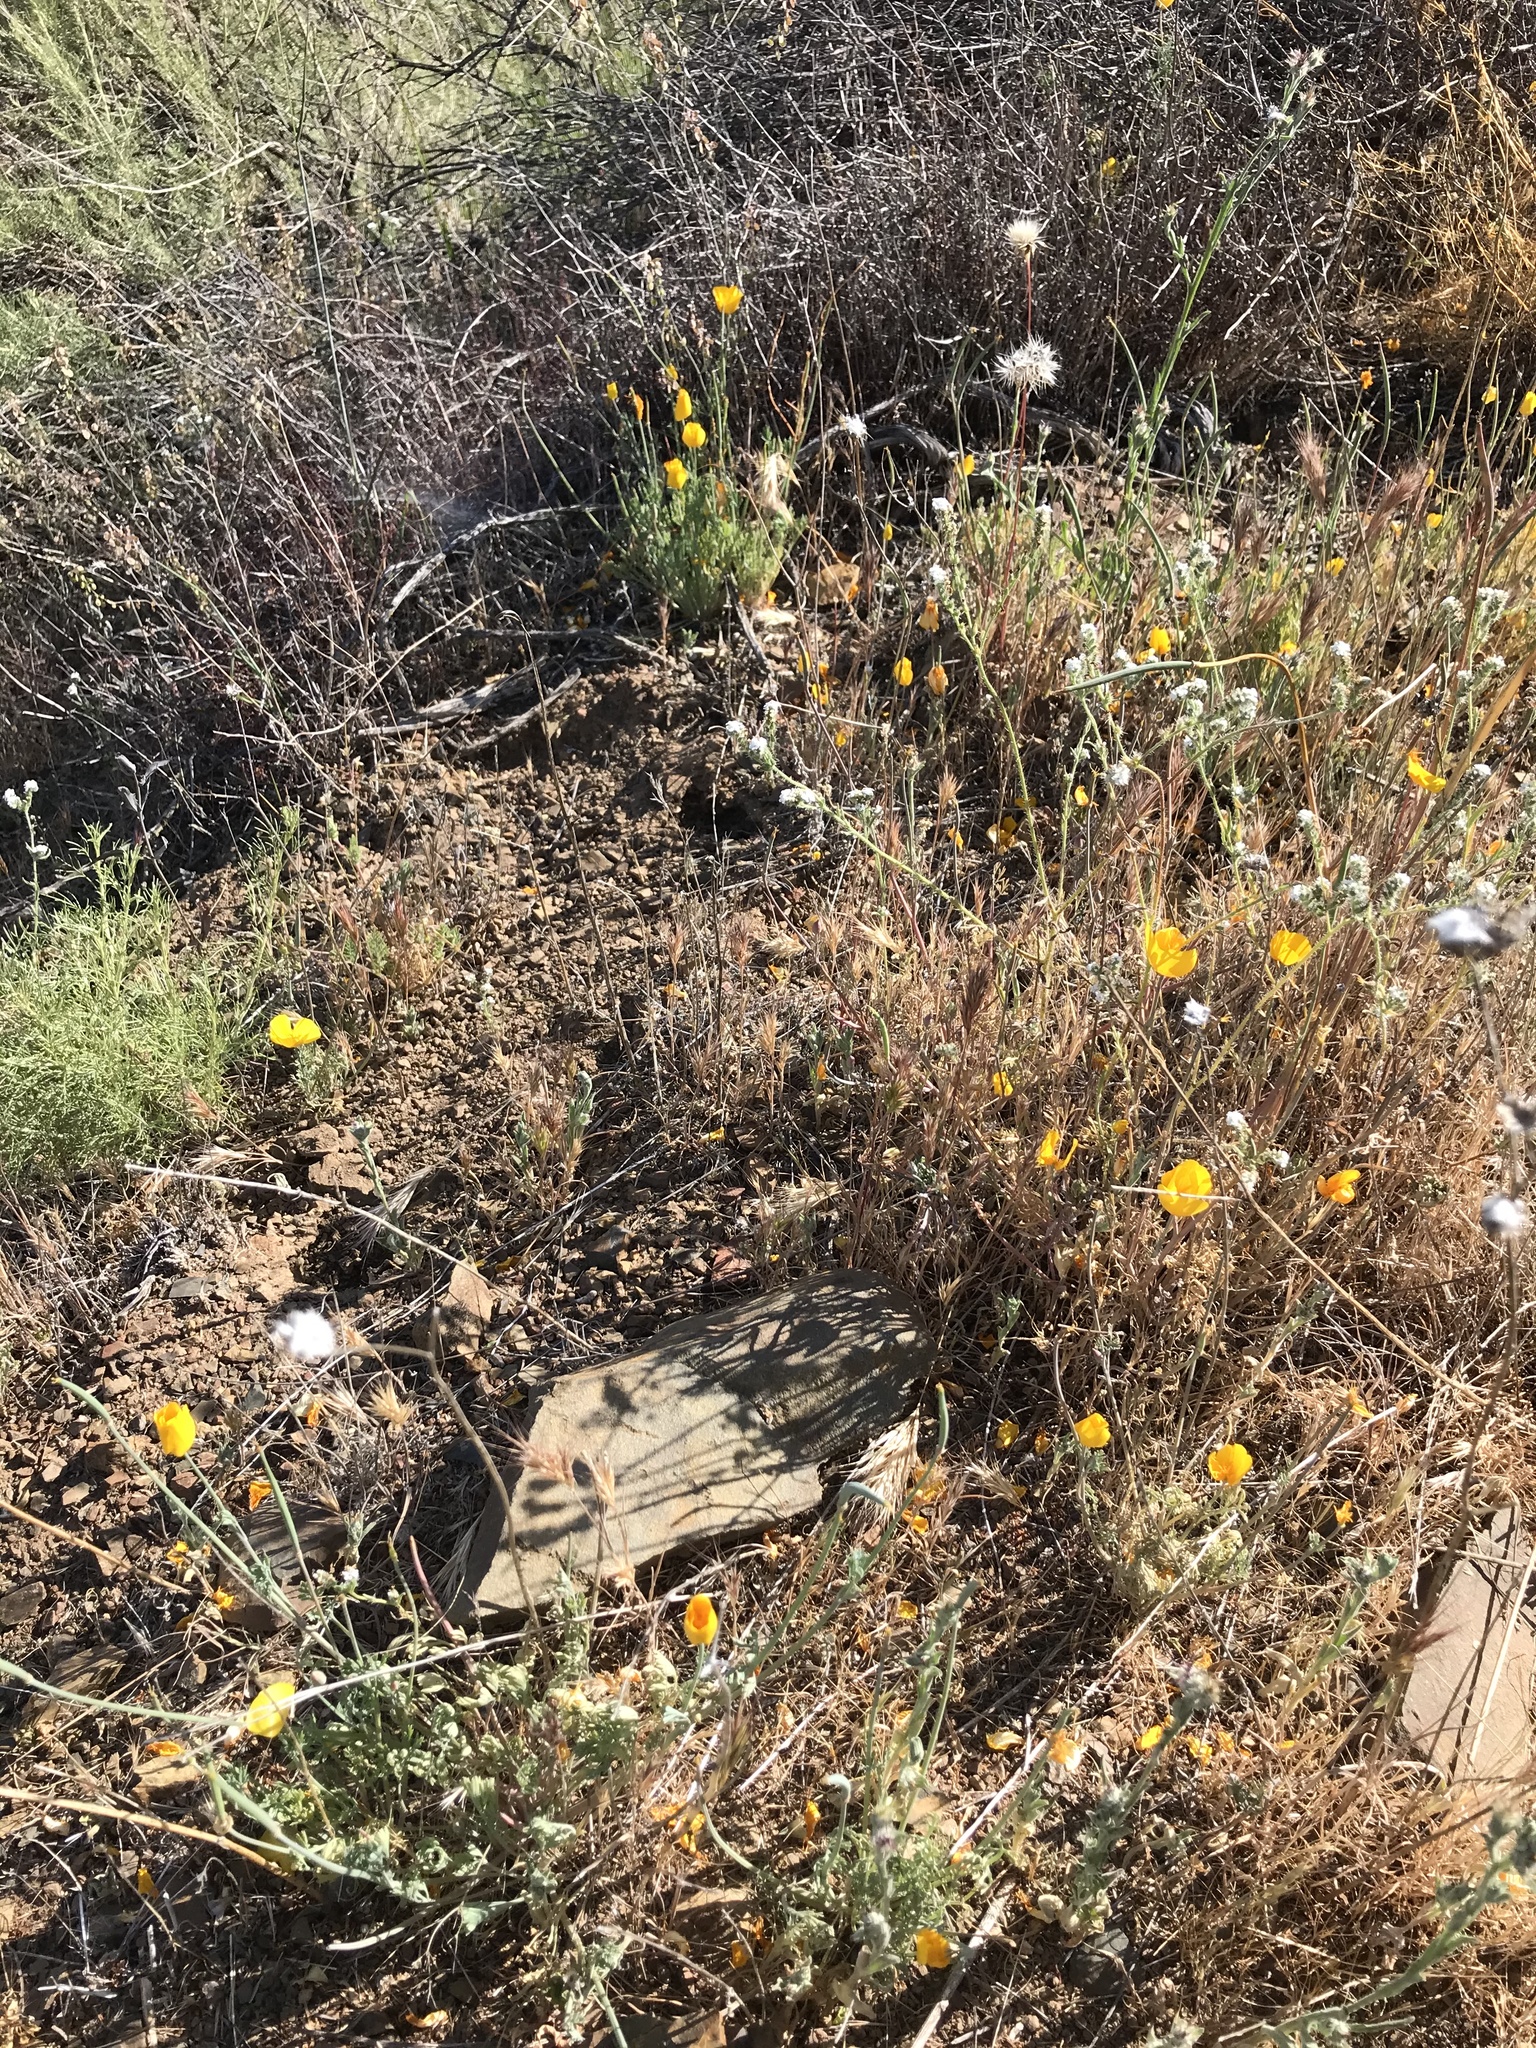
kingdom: Plantae
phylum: Tracheophyta
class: Magnoliopsida
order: Ranunculales
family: Papaveraceae
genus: Eschscholzia
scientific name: Eschscholzia caespitosa
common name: Tufted california-poppy
